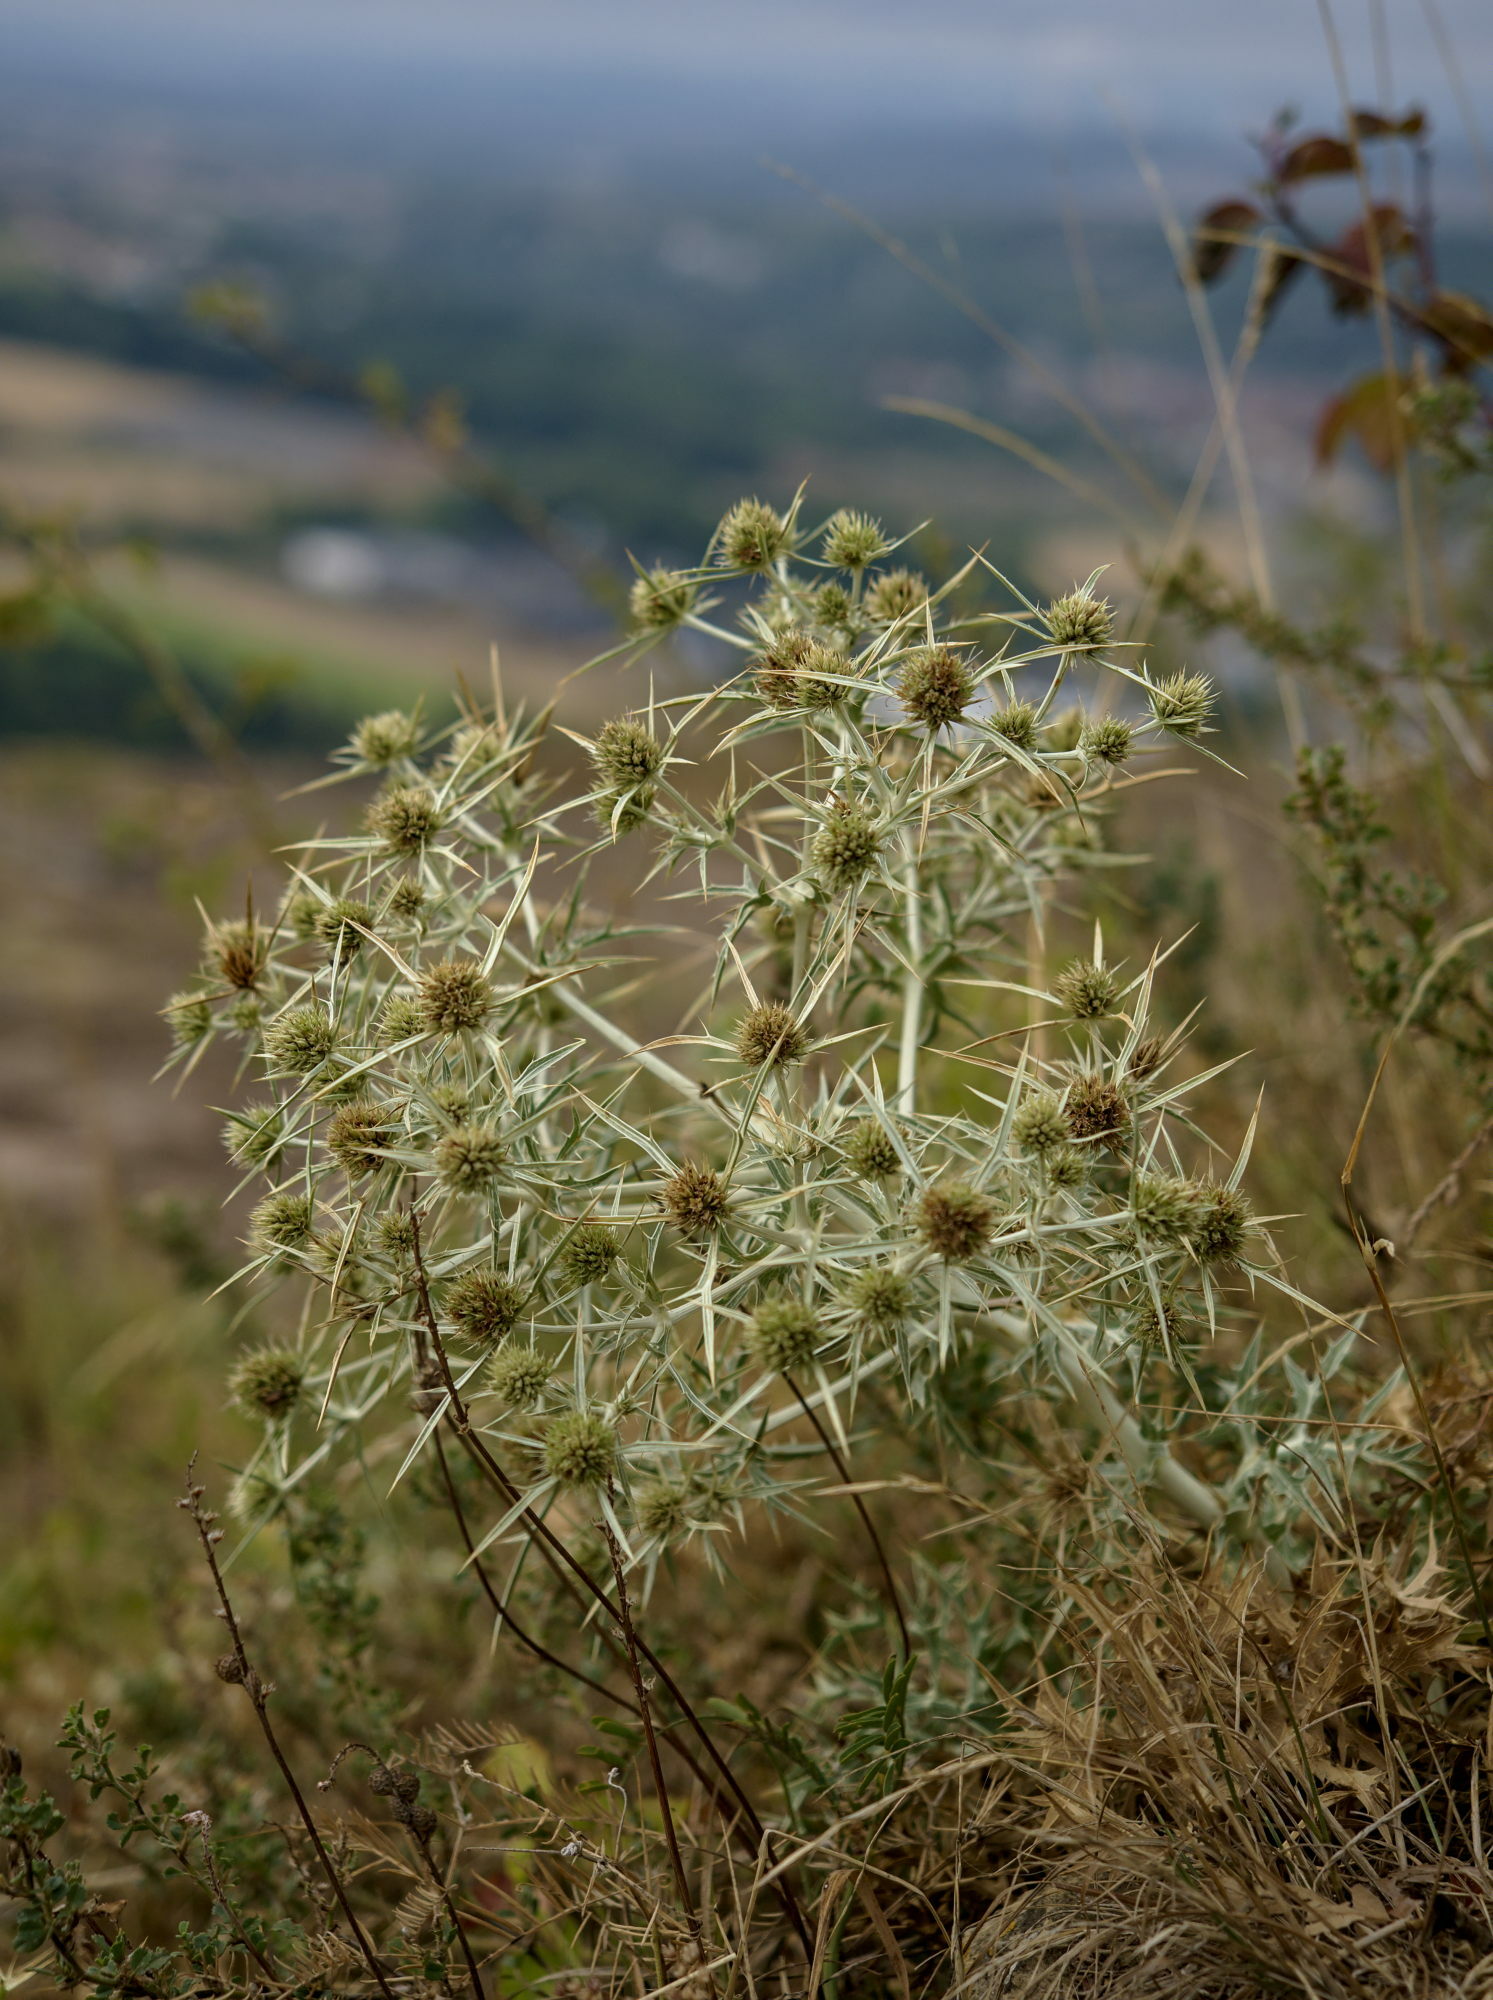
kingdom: Plantae
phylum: Tracheophyta
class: Magnoliopsida
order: Apiales
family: Apiaceae
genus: Eryngium
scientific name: Eryngium campestre
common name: Field eryngo
